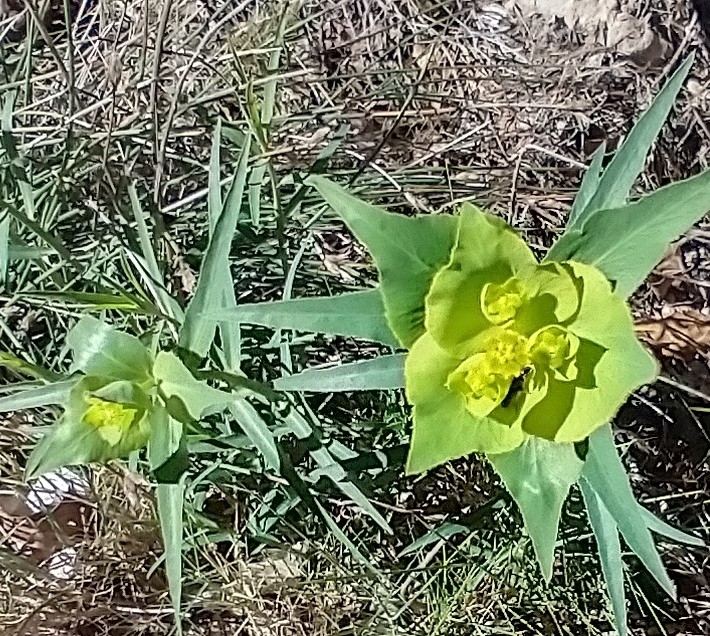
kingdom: Plantae
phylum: Tracheophyta
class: Magnoliopsida
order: Malpighiales
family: Euphorbiaceae
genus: Euphorbia
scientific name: Euphorbia serrata
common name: Serrate spurge
